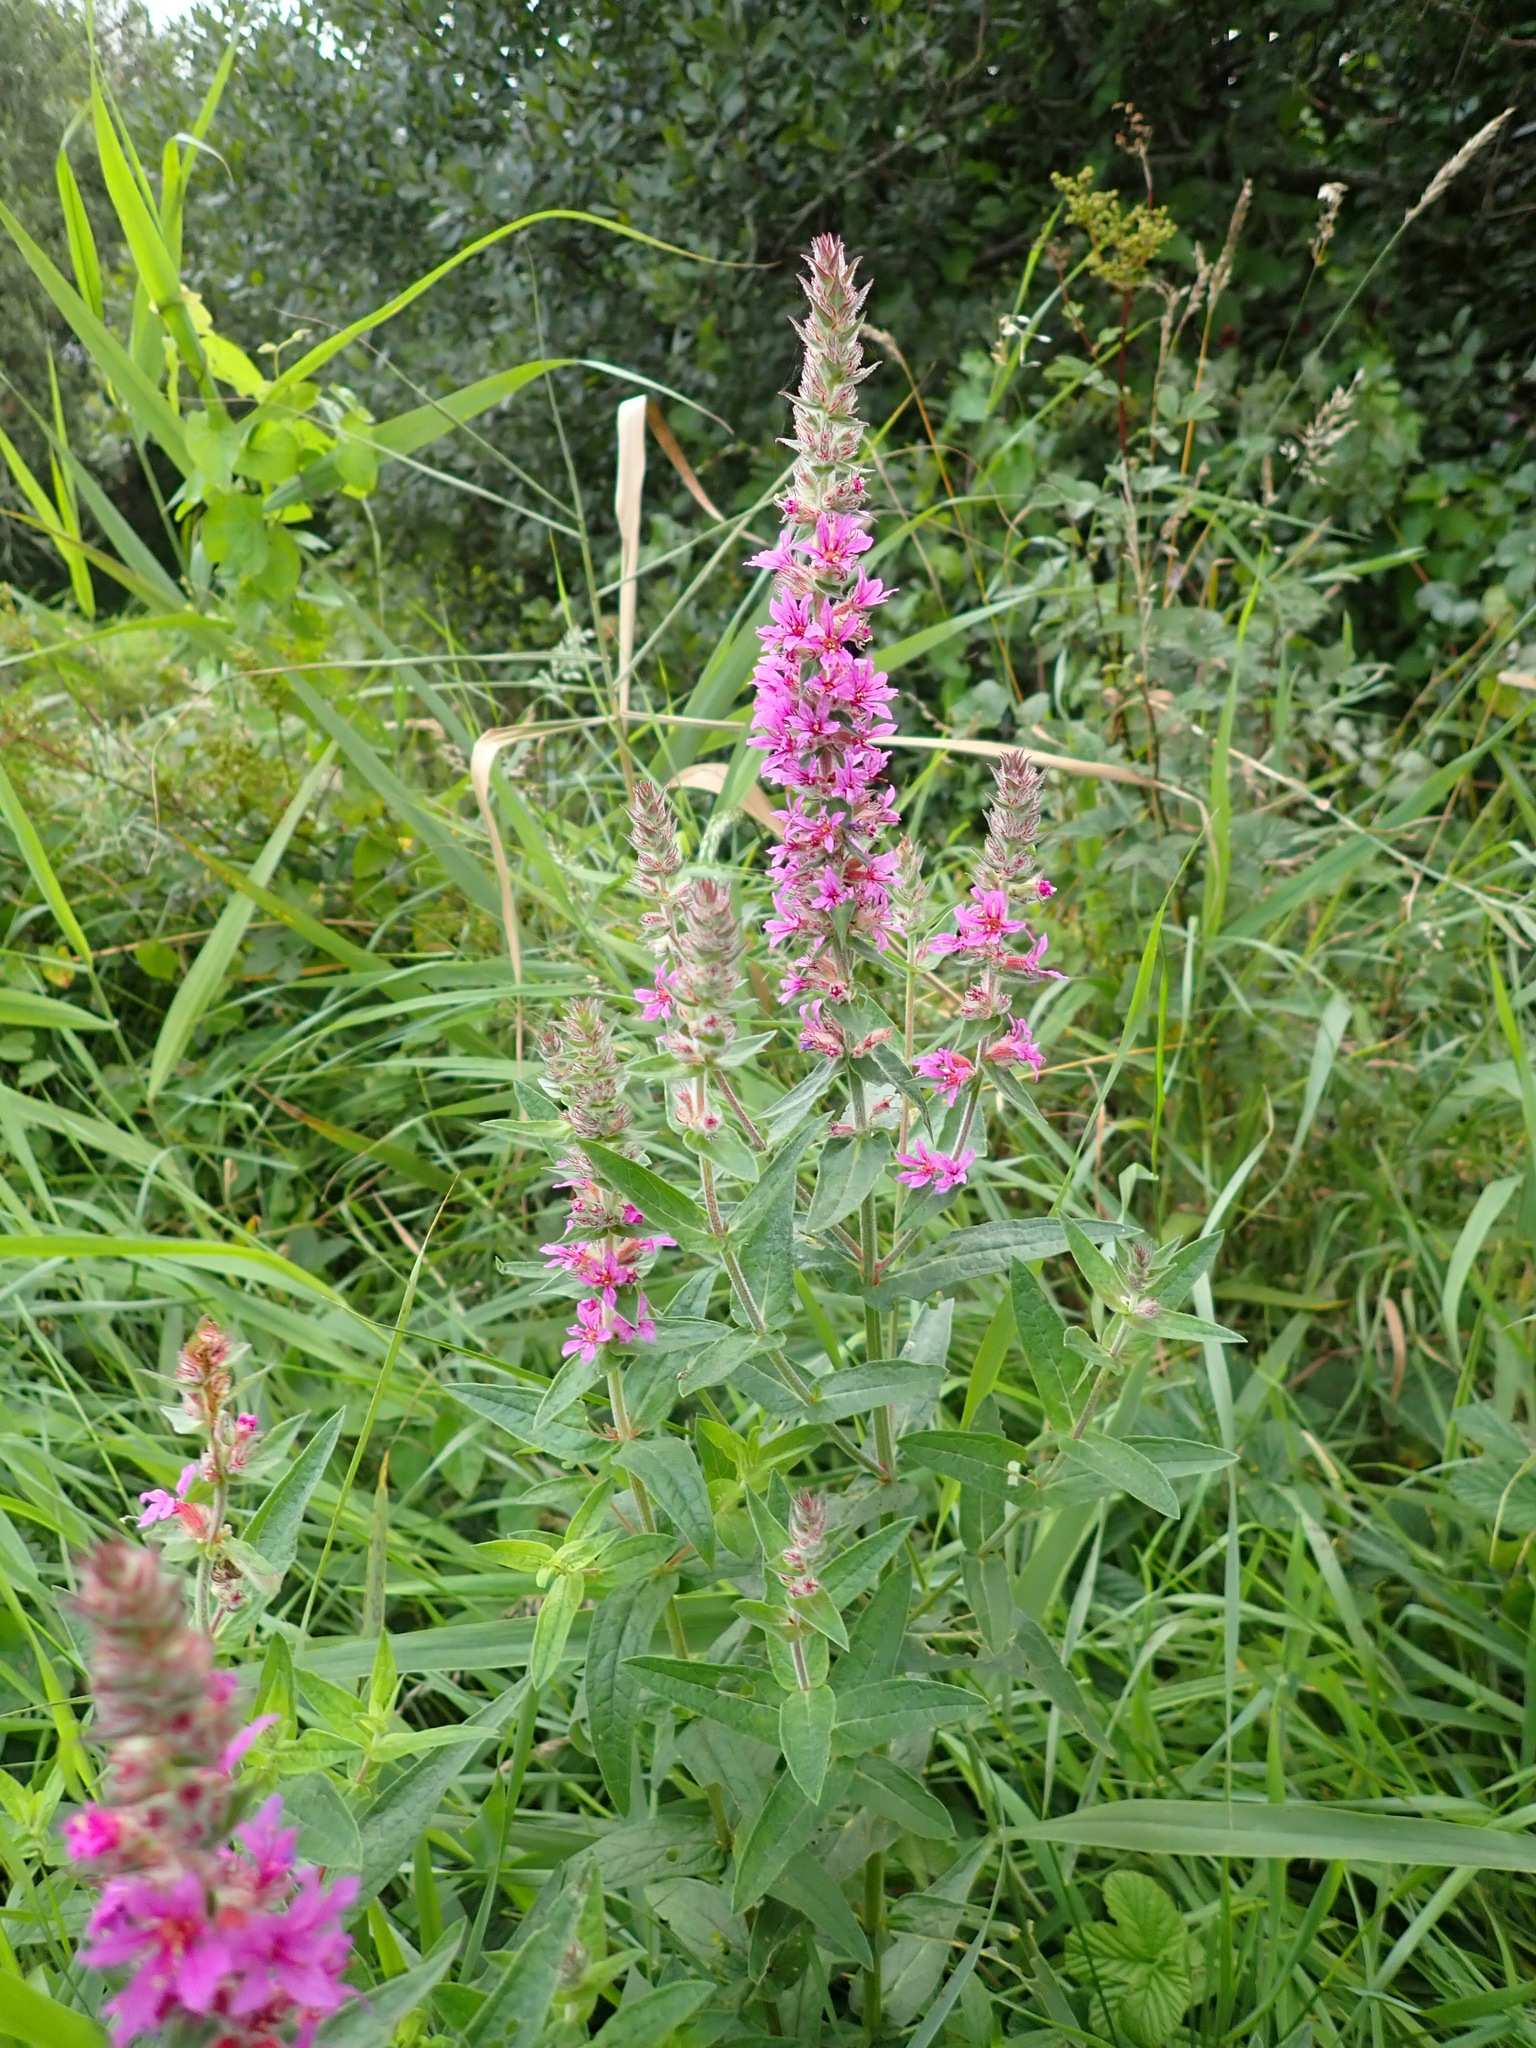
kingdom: Plantae
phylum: Tracheophyta
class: Magnoliopsida
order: Myrtales
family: Lythraceae
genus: Lythrum
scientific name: Lythrum salicaria
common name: Purple loosestrife
